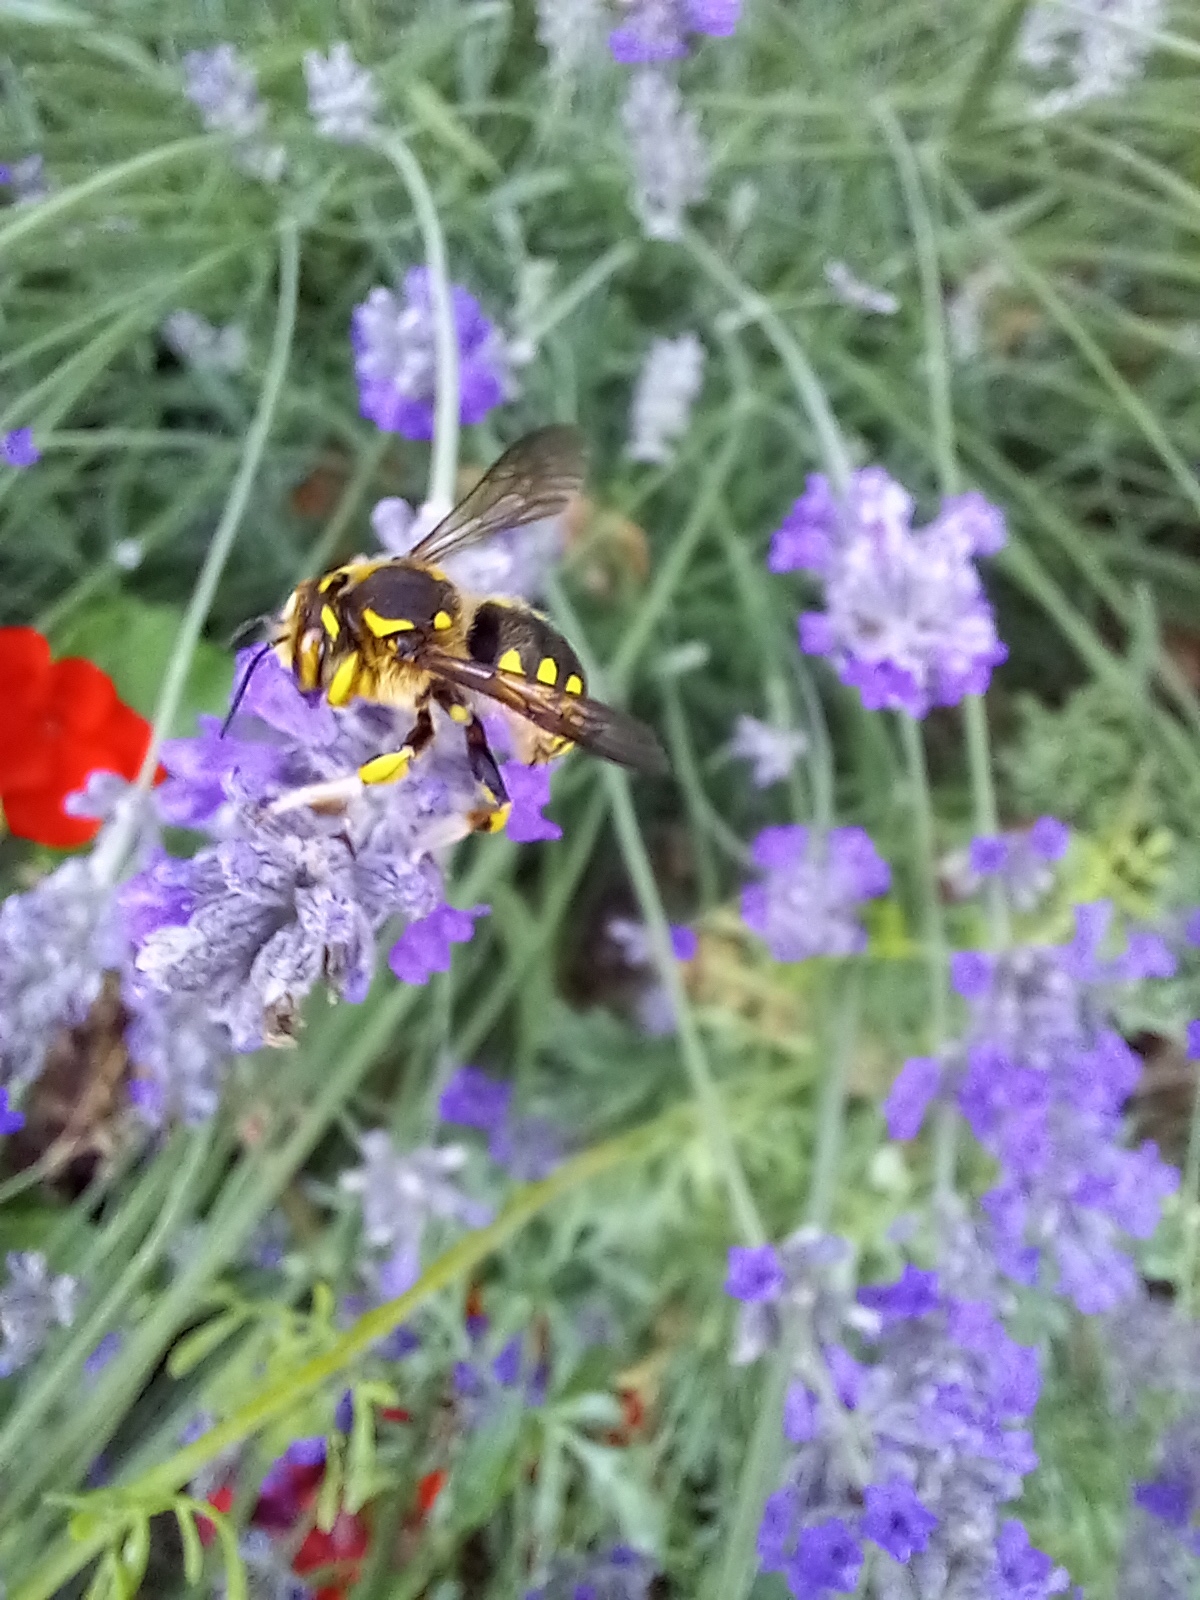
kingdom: Animalia
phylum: Arthropoda
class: Insecta
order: Hymenoptera
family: Megachilidae
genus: Anthidium
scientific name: Anthidium florentinum
